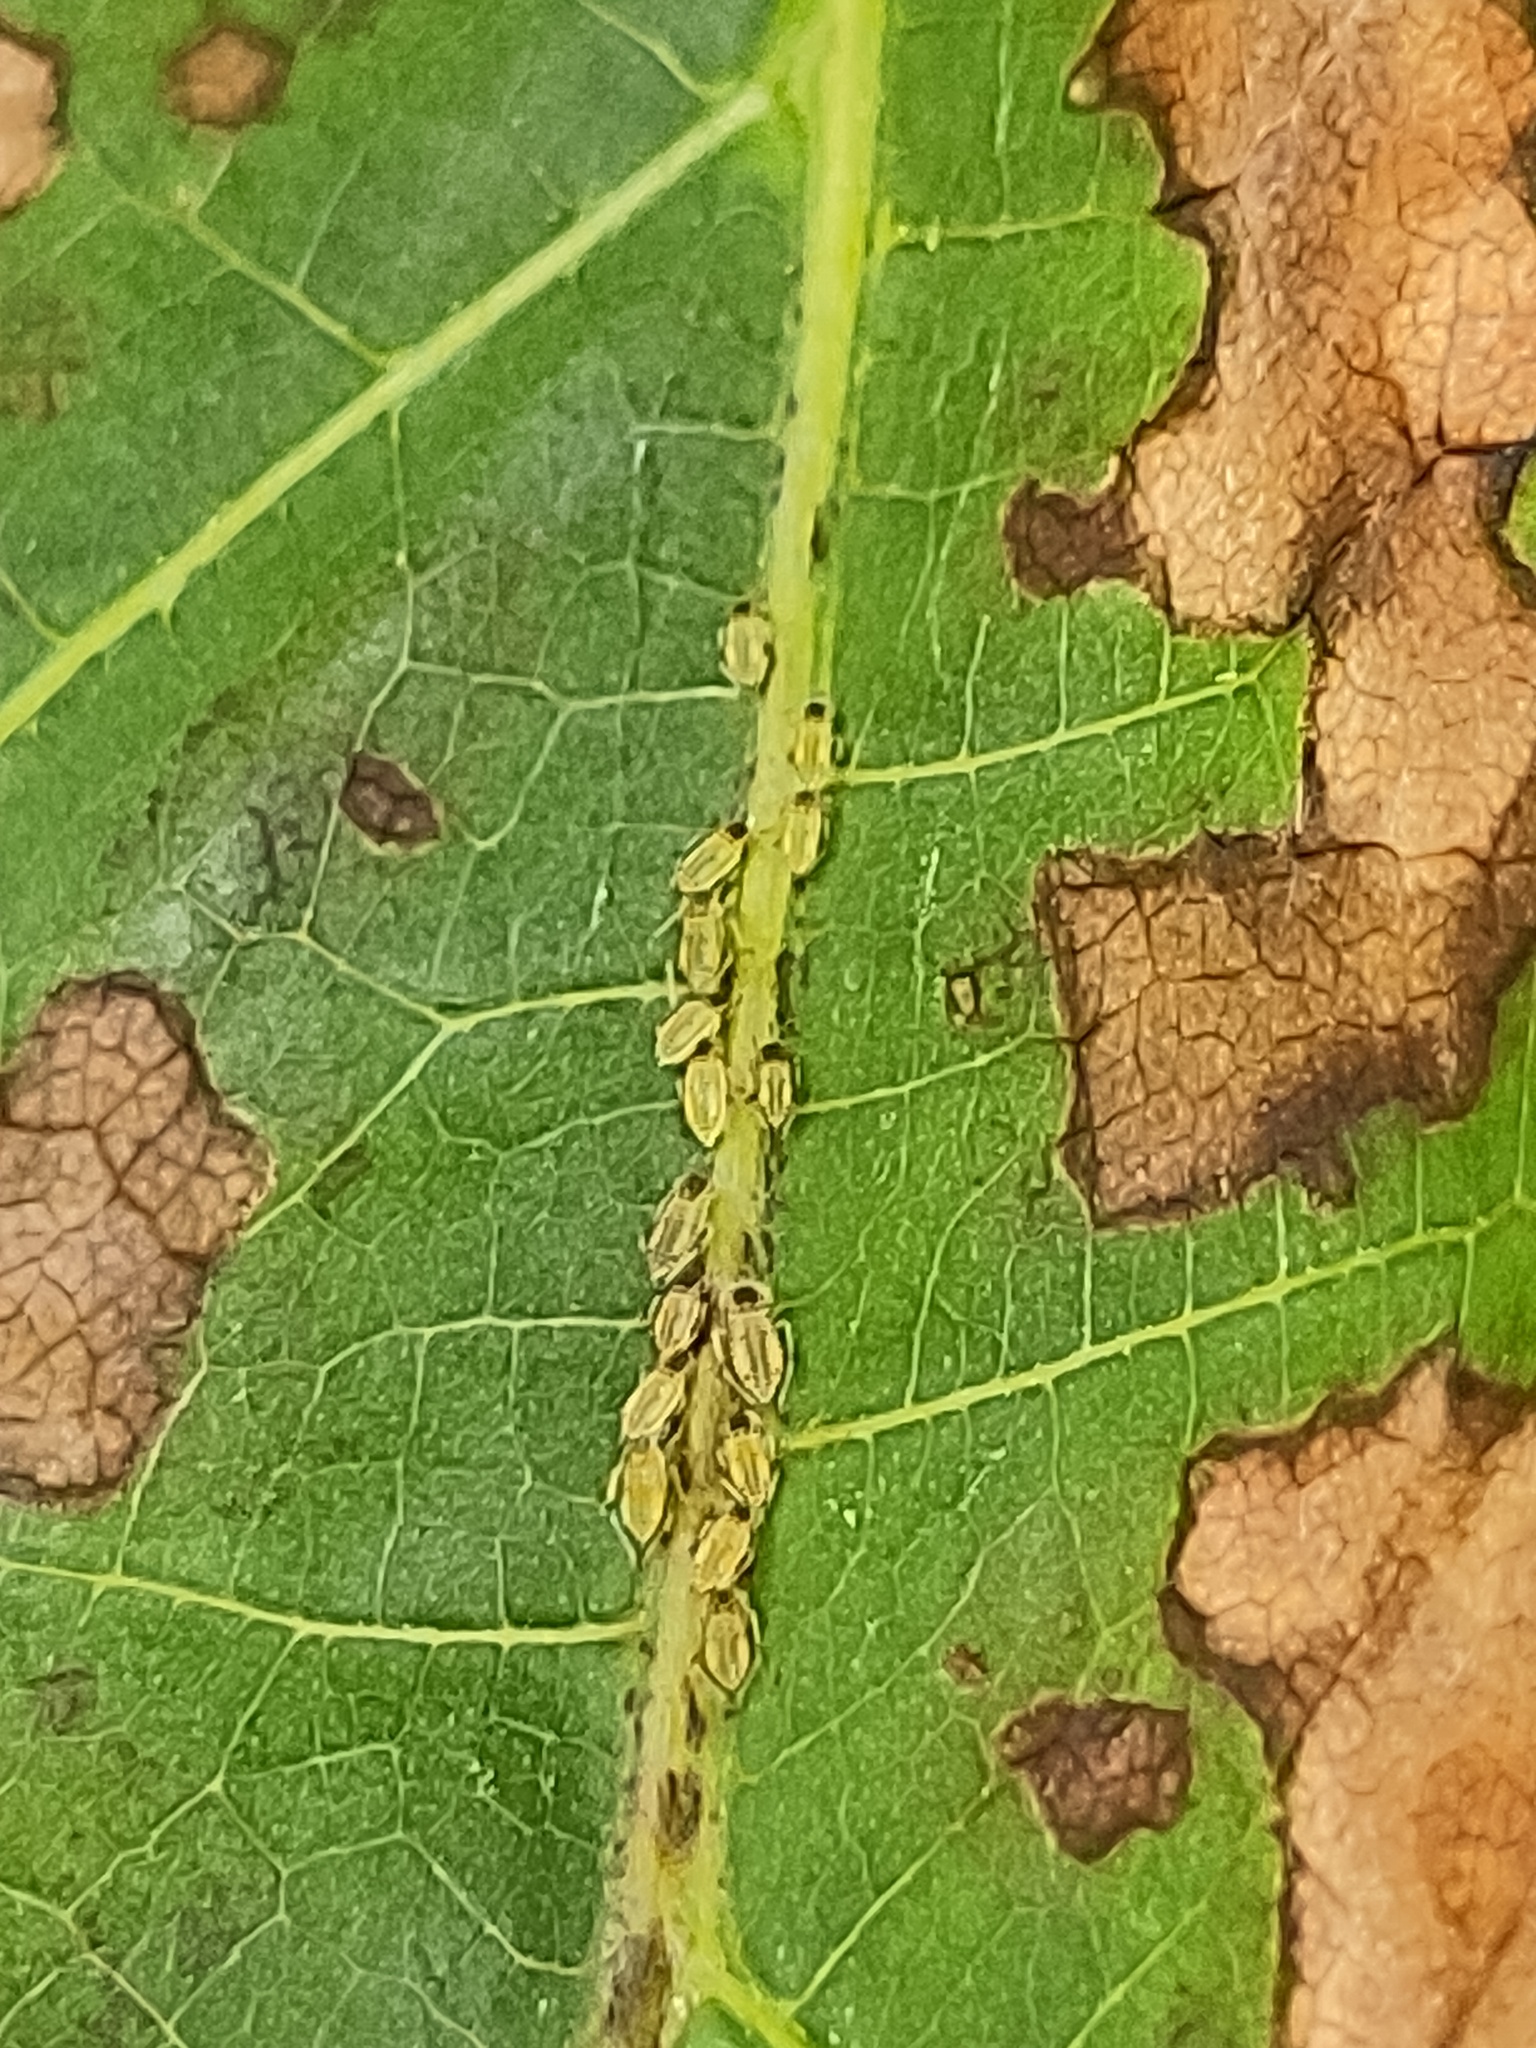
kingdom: Animalia
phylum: Arthropoda
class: Insecta
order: Hemiptera
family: Aphididae
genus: Panaphis
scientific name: Panaphis juglandis
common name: Large walnut aphid
